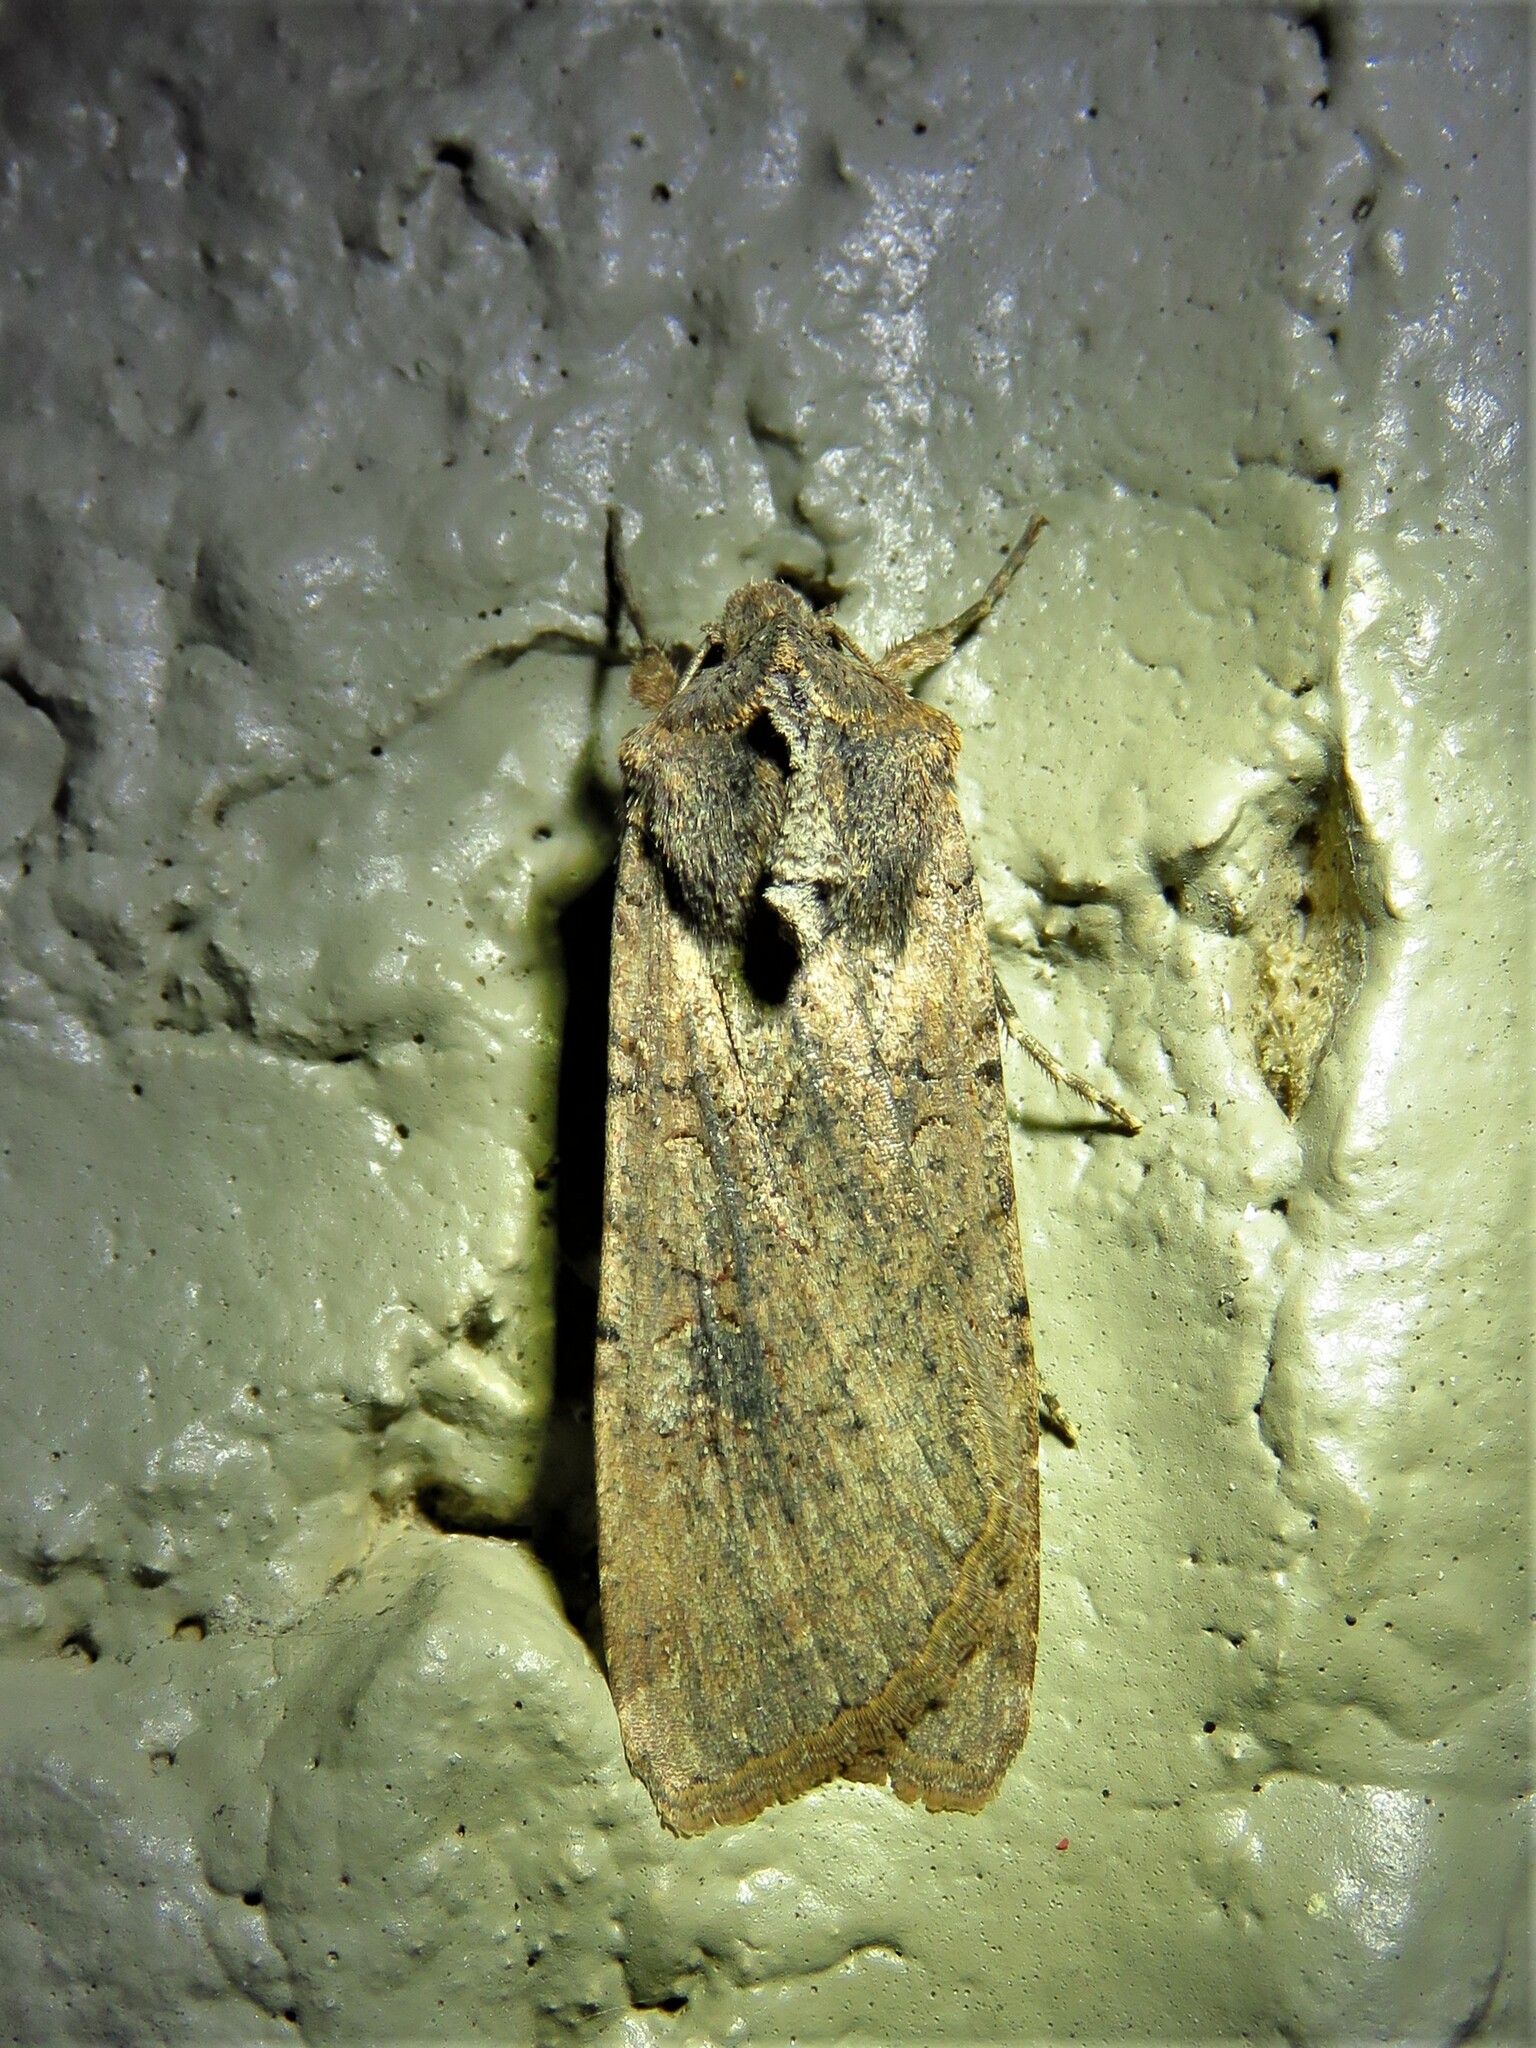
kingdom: Animalia
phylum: Arthropoda
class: Insecta
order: Lepidoptera
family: Noctuidae
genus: Peridroma
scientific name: Peridroma saucia
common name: Pearly underwing
